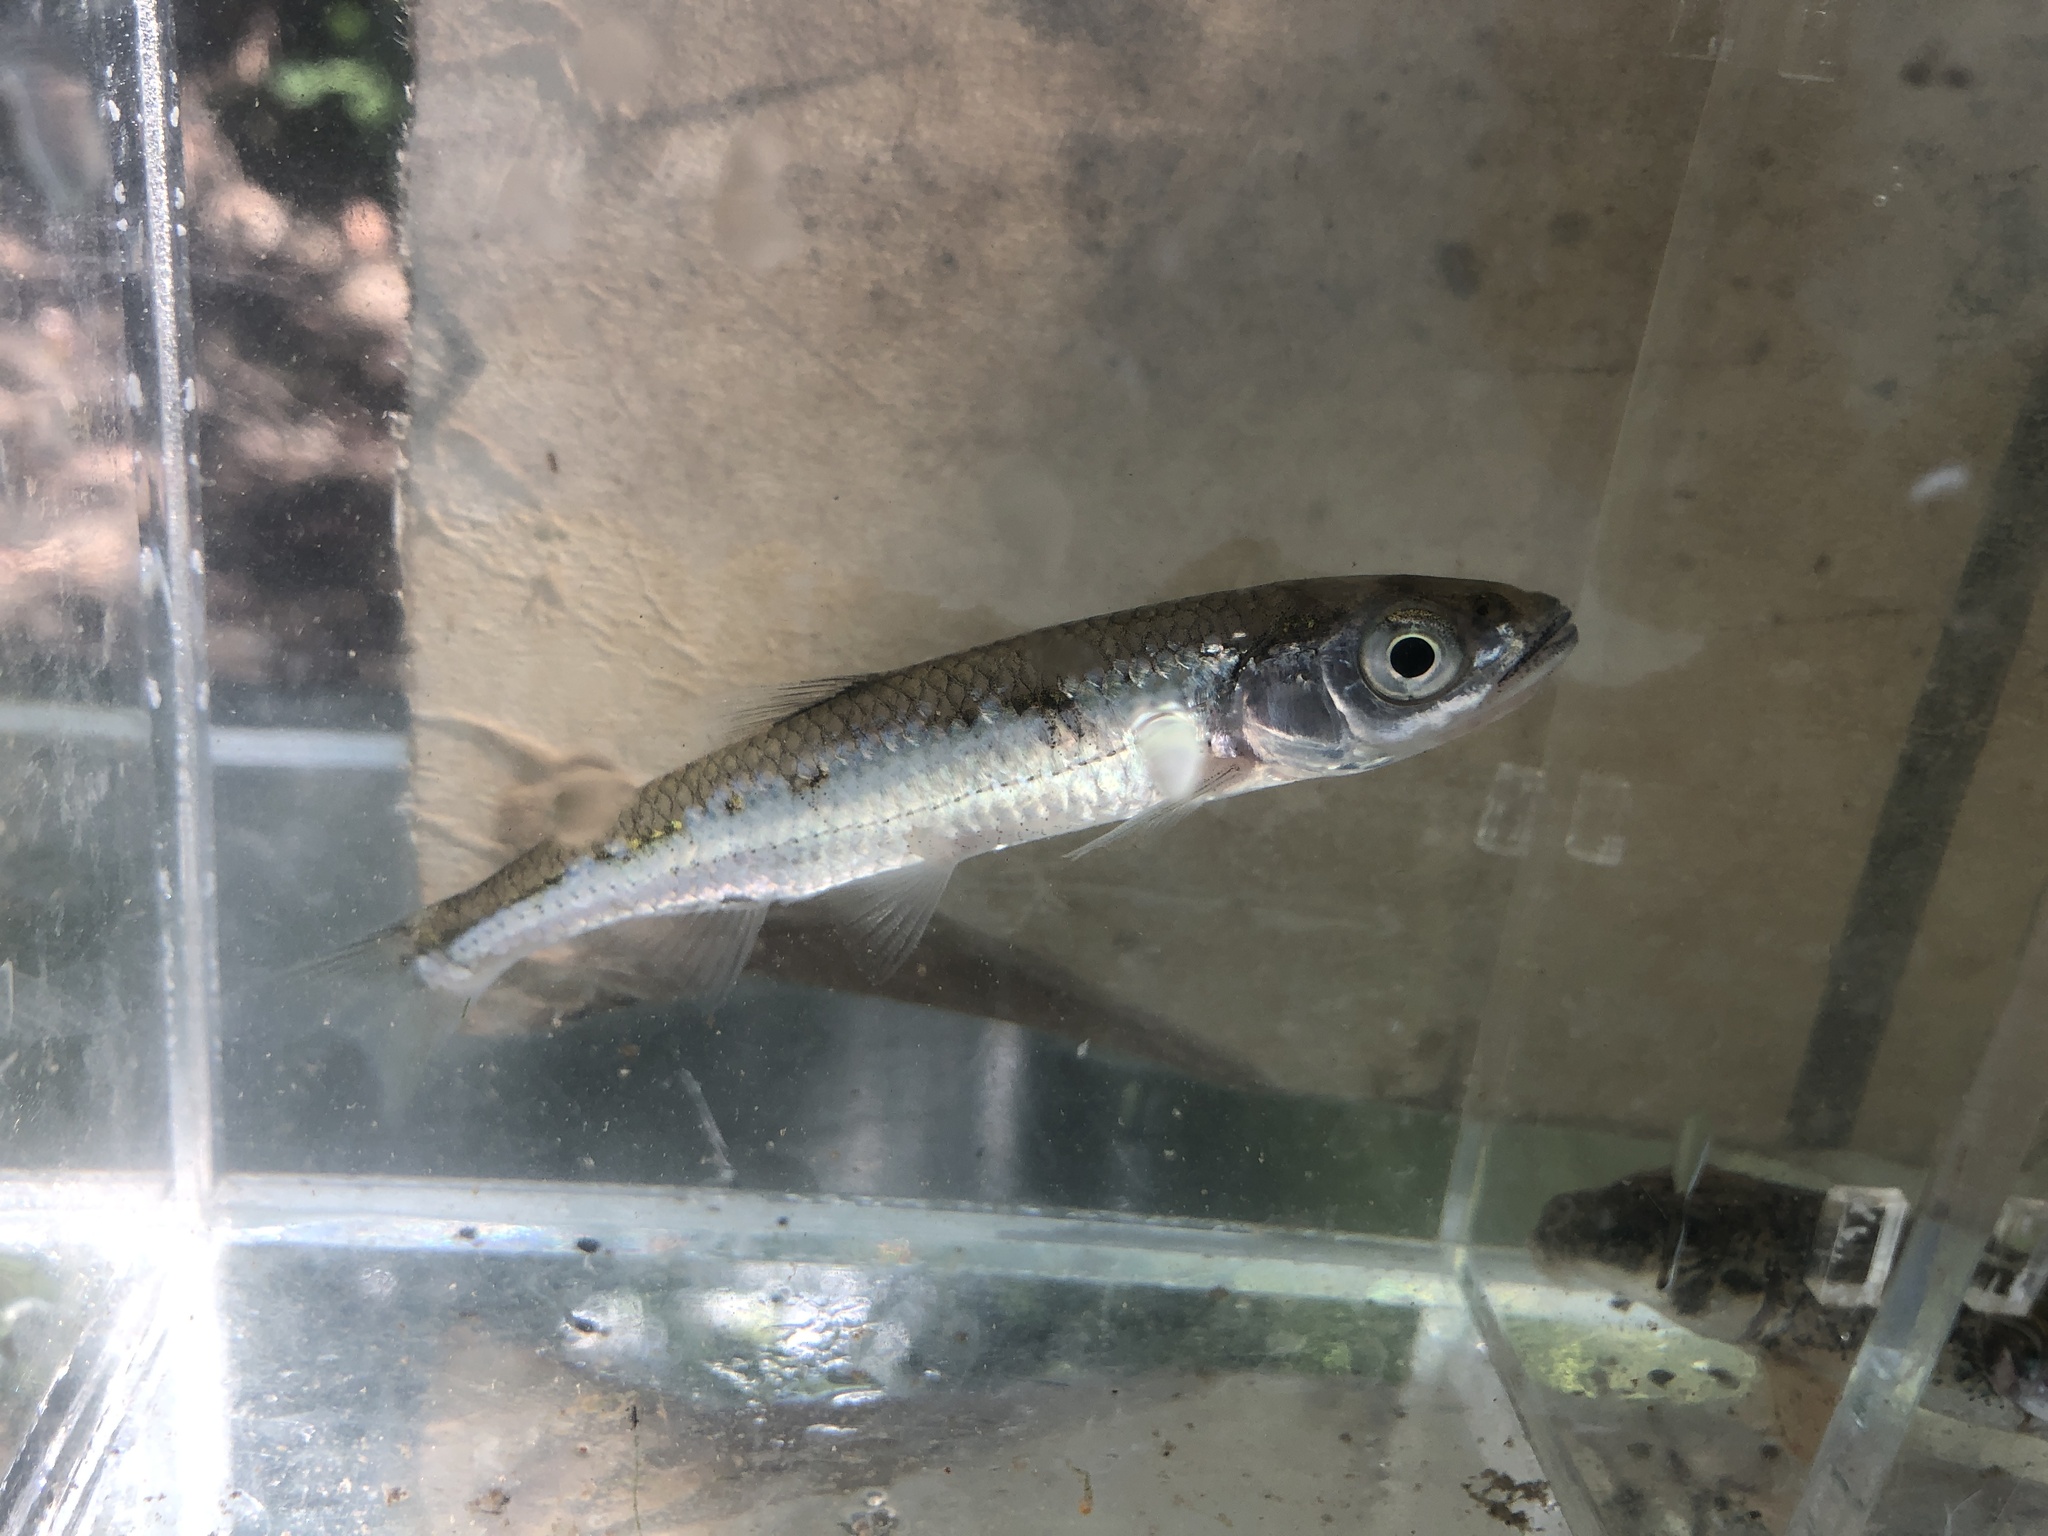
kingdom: Animalia
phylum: Chordata
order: Cypriniformes
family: Cyprinidae
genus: Notropis
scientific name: Notropis photogenis
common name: Silver shiner
